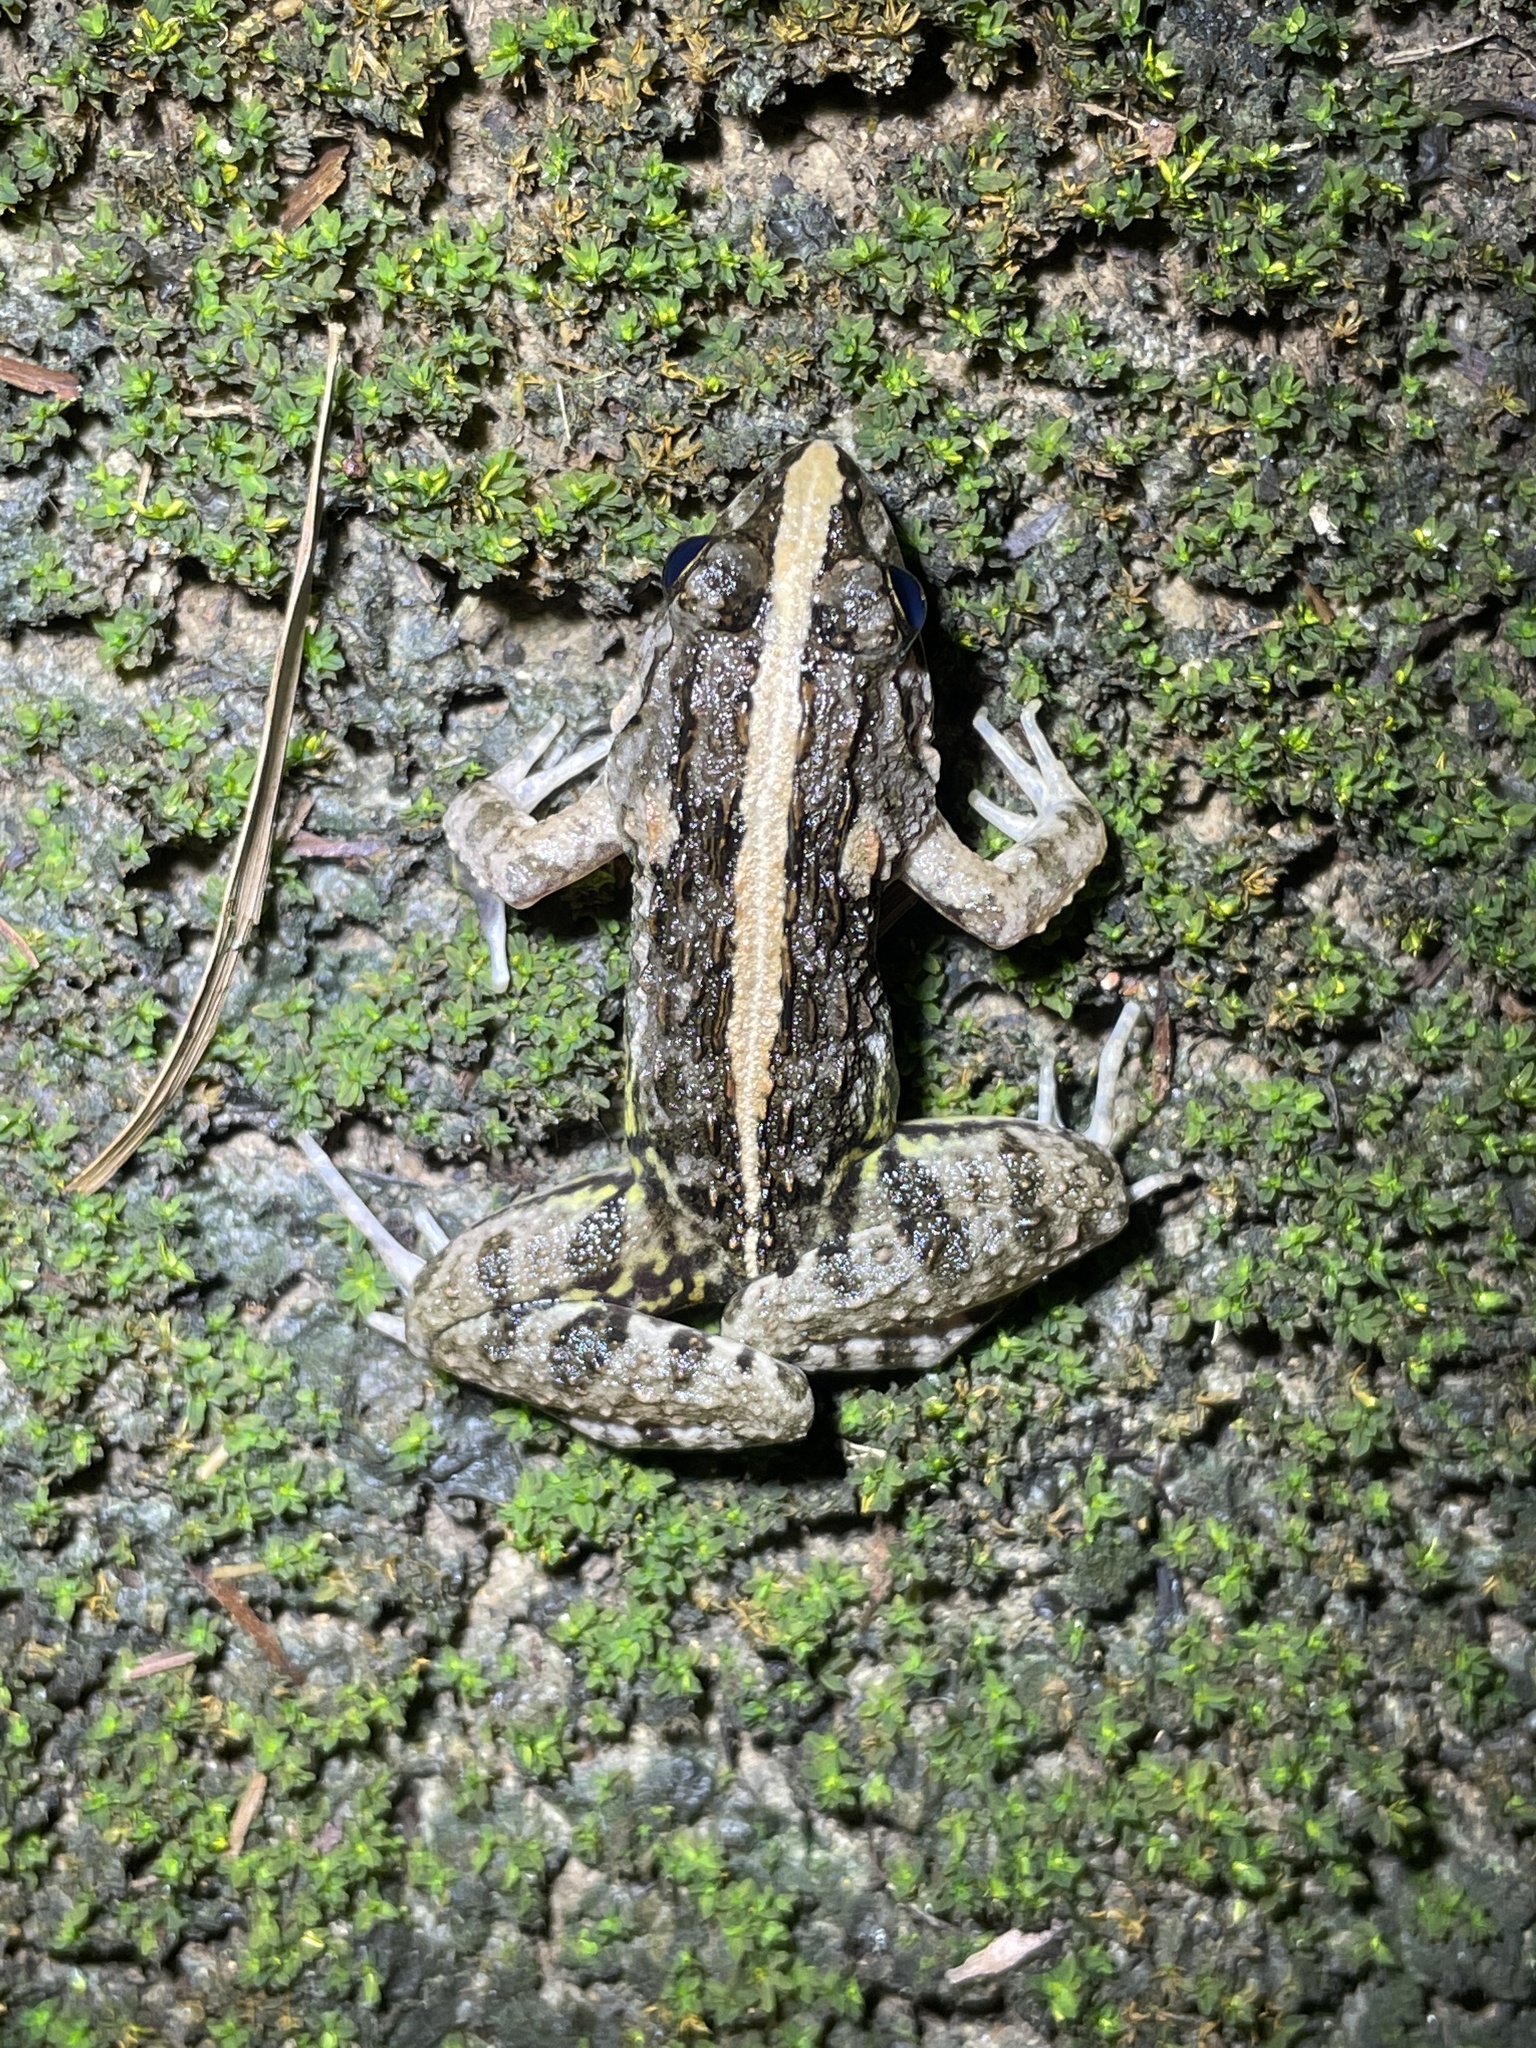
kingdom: Animalia
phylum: Chordata
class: Amphibia
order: Anura
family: Dicroglossidae
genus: Fejervarya
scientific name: Fejervarya multistriata
